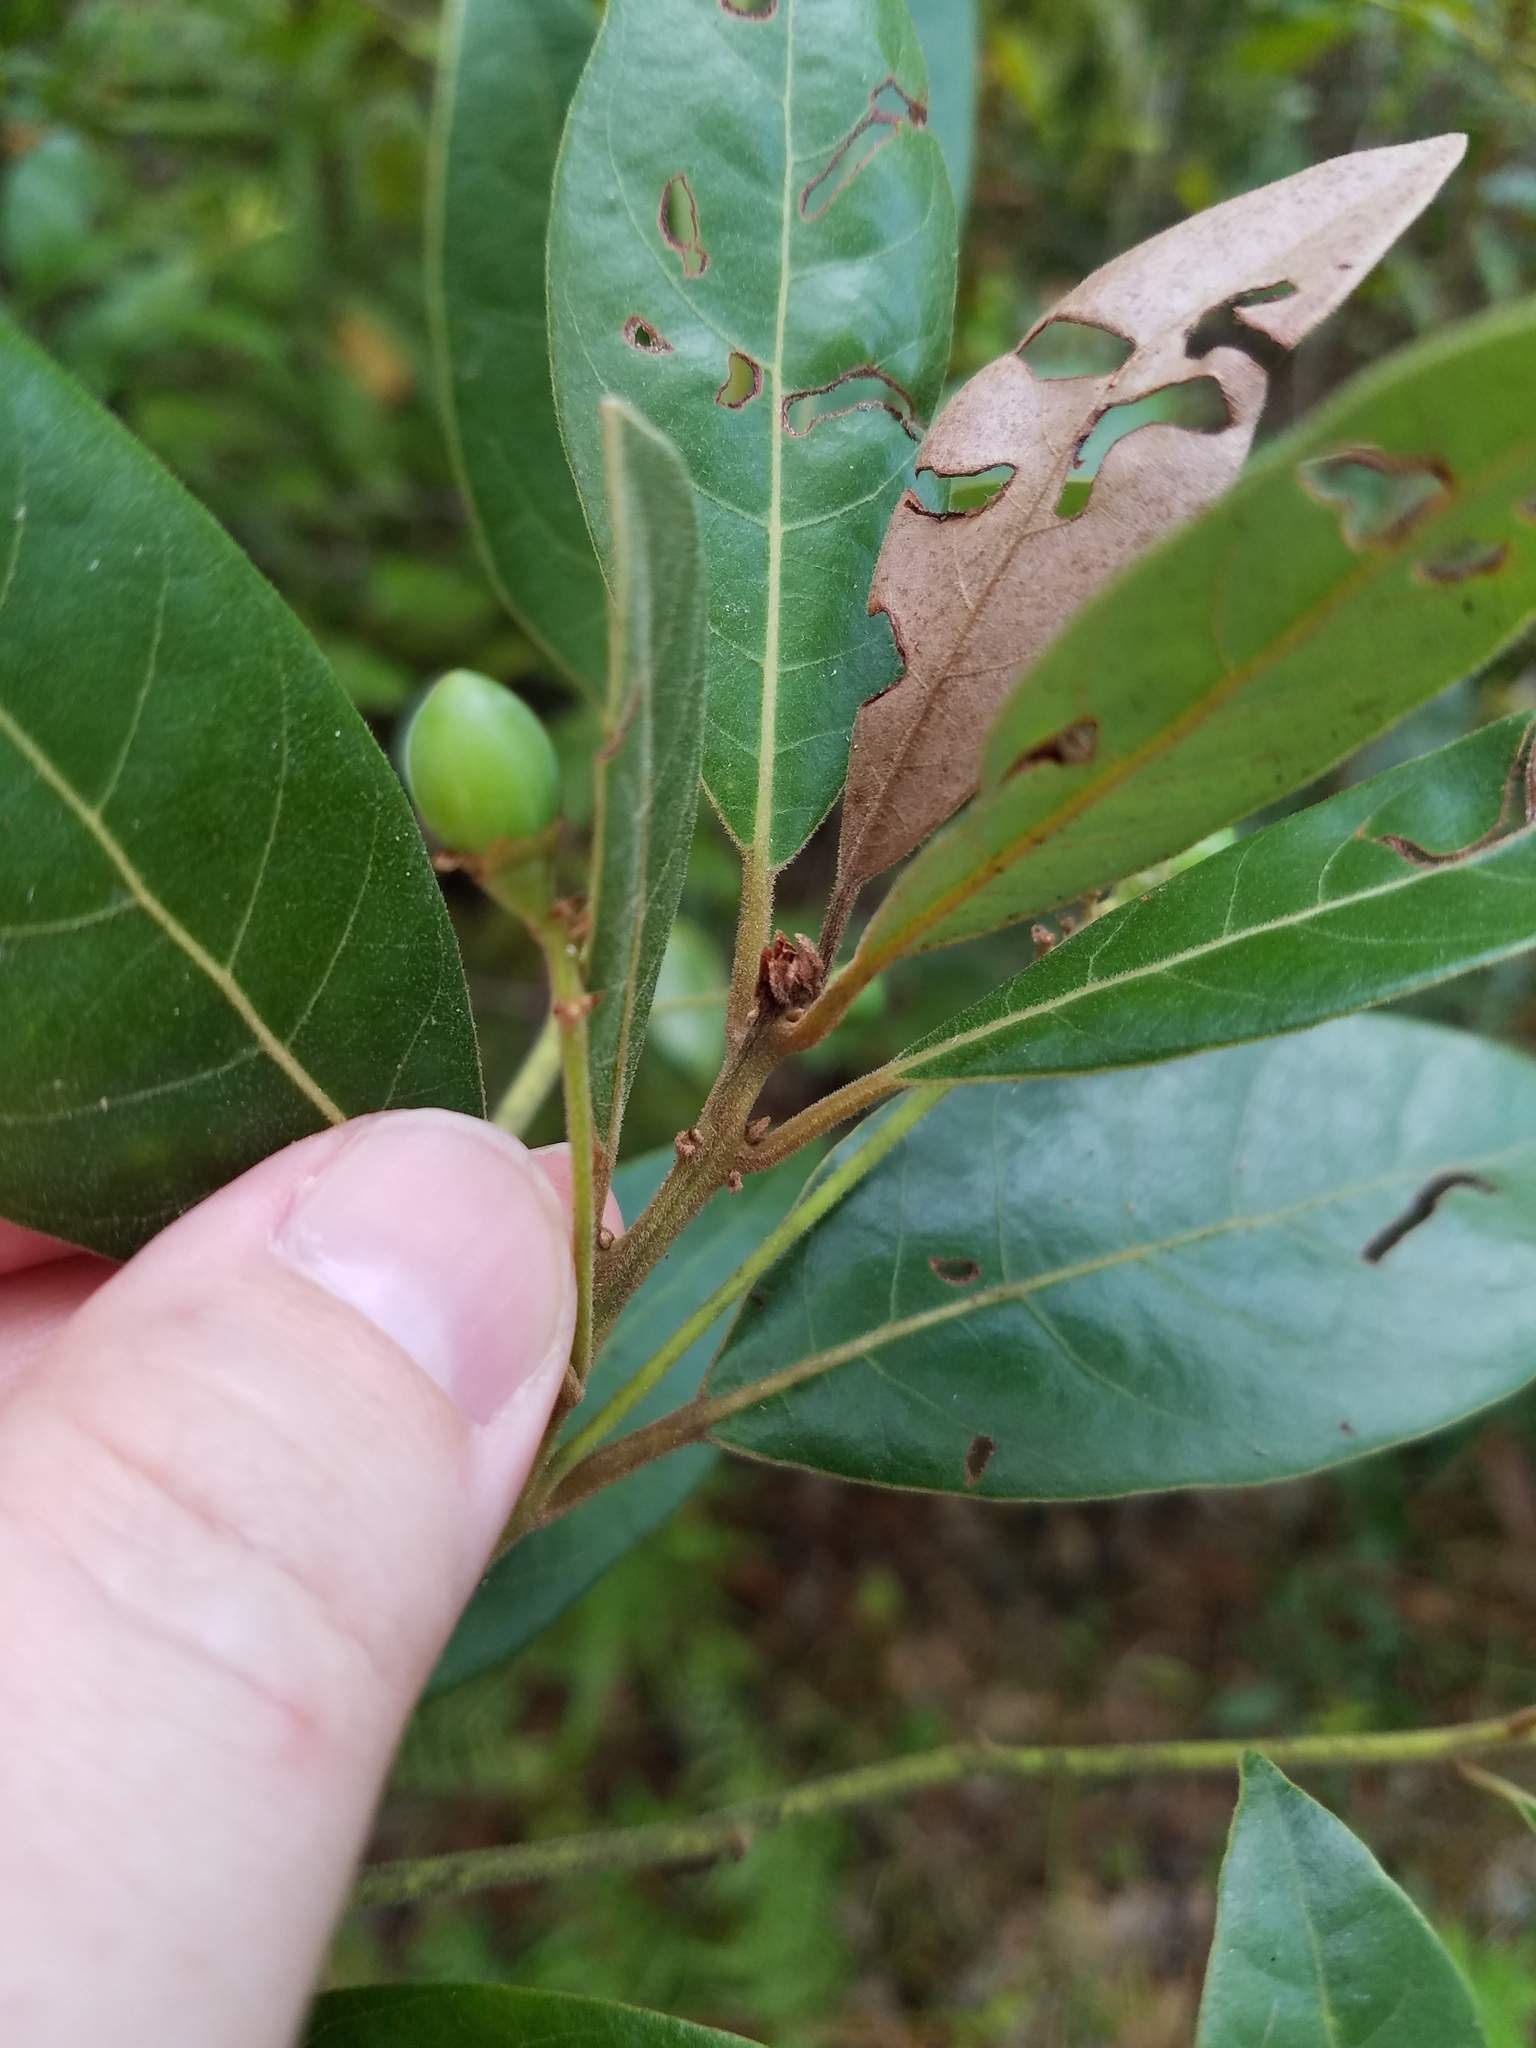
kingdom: Plantae
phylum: Tracheophyta
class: Magnoliopsida
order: Laurales
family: Lauraceae
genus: Persea
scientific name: Persea palustris
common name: Swampbay
